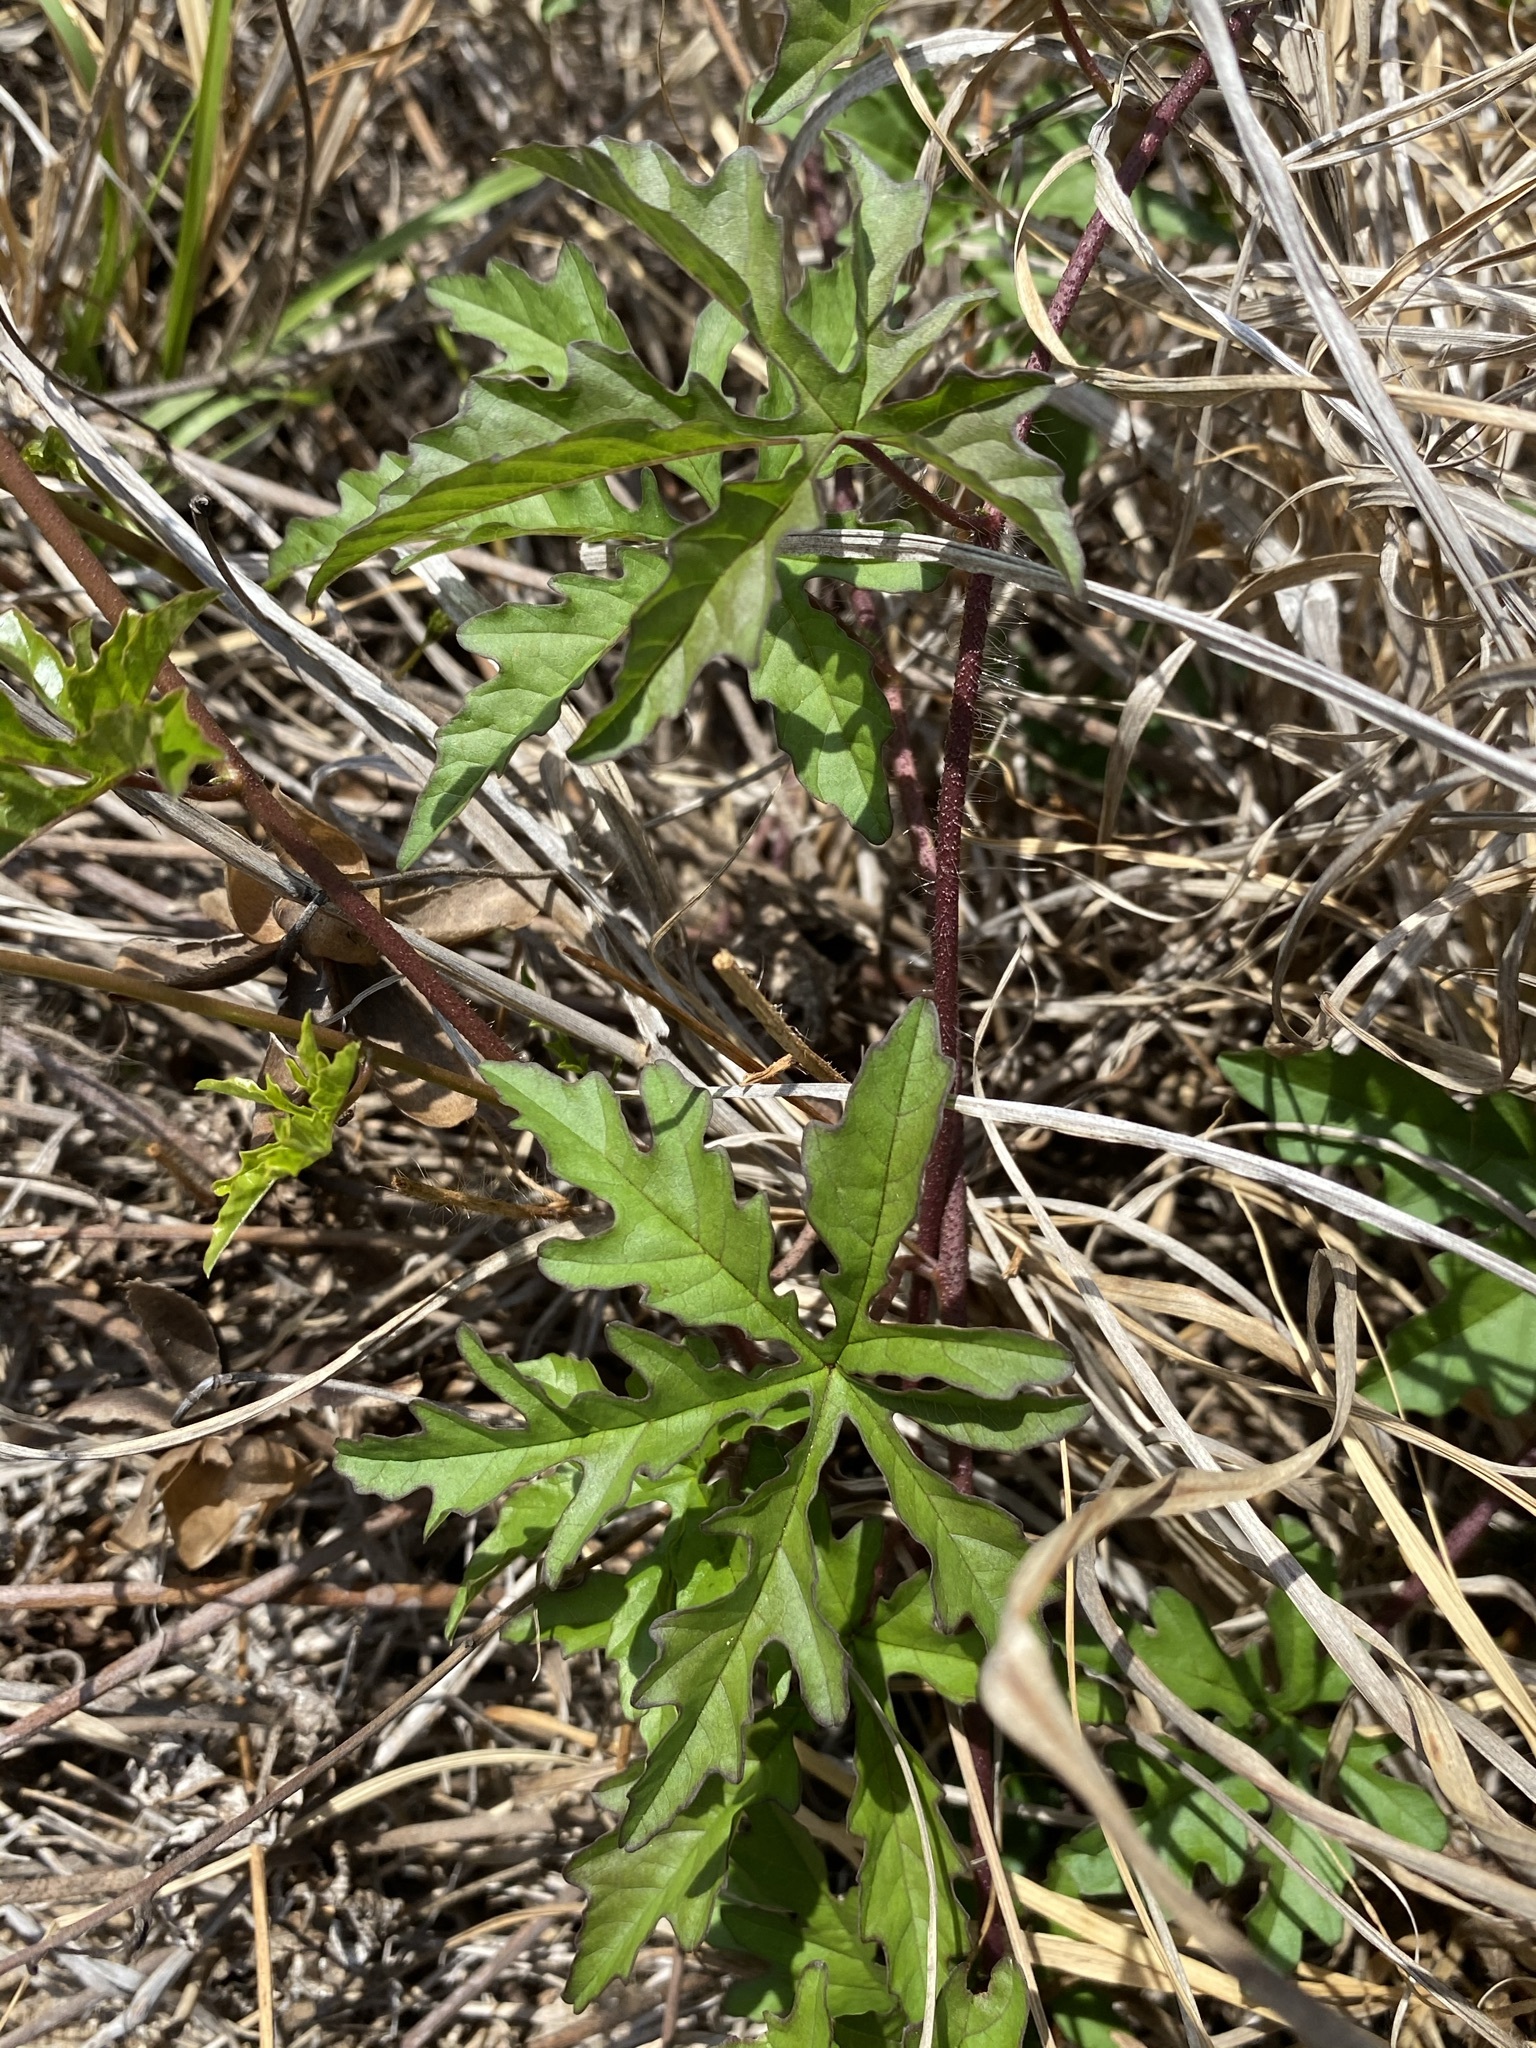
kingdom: Plantae
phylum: Tracheophyta
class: Magnoliopsida
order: Solanales
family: Convolvulaceae
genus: Distimake
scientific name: Distimake dissectus
